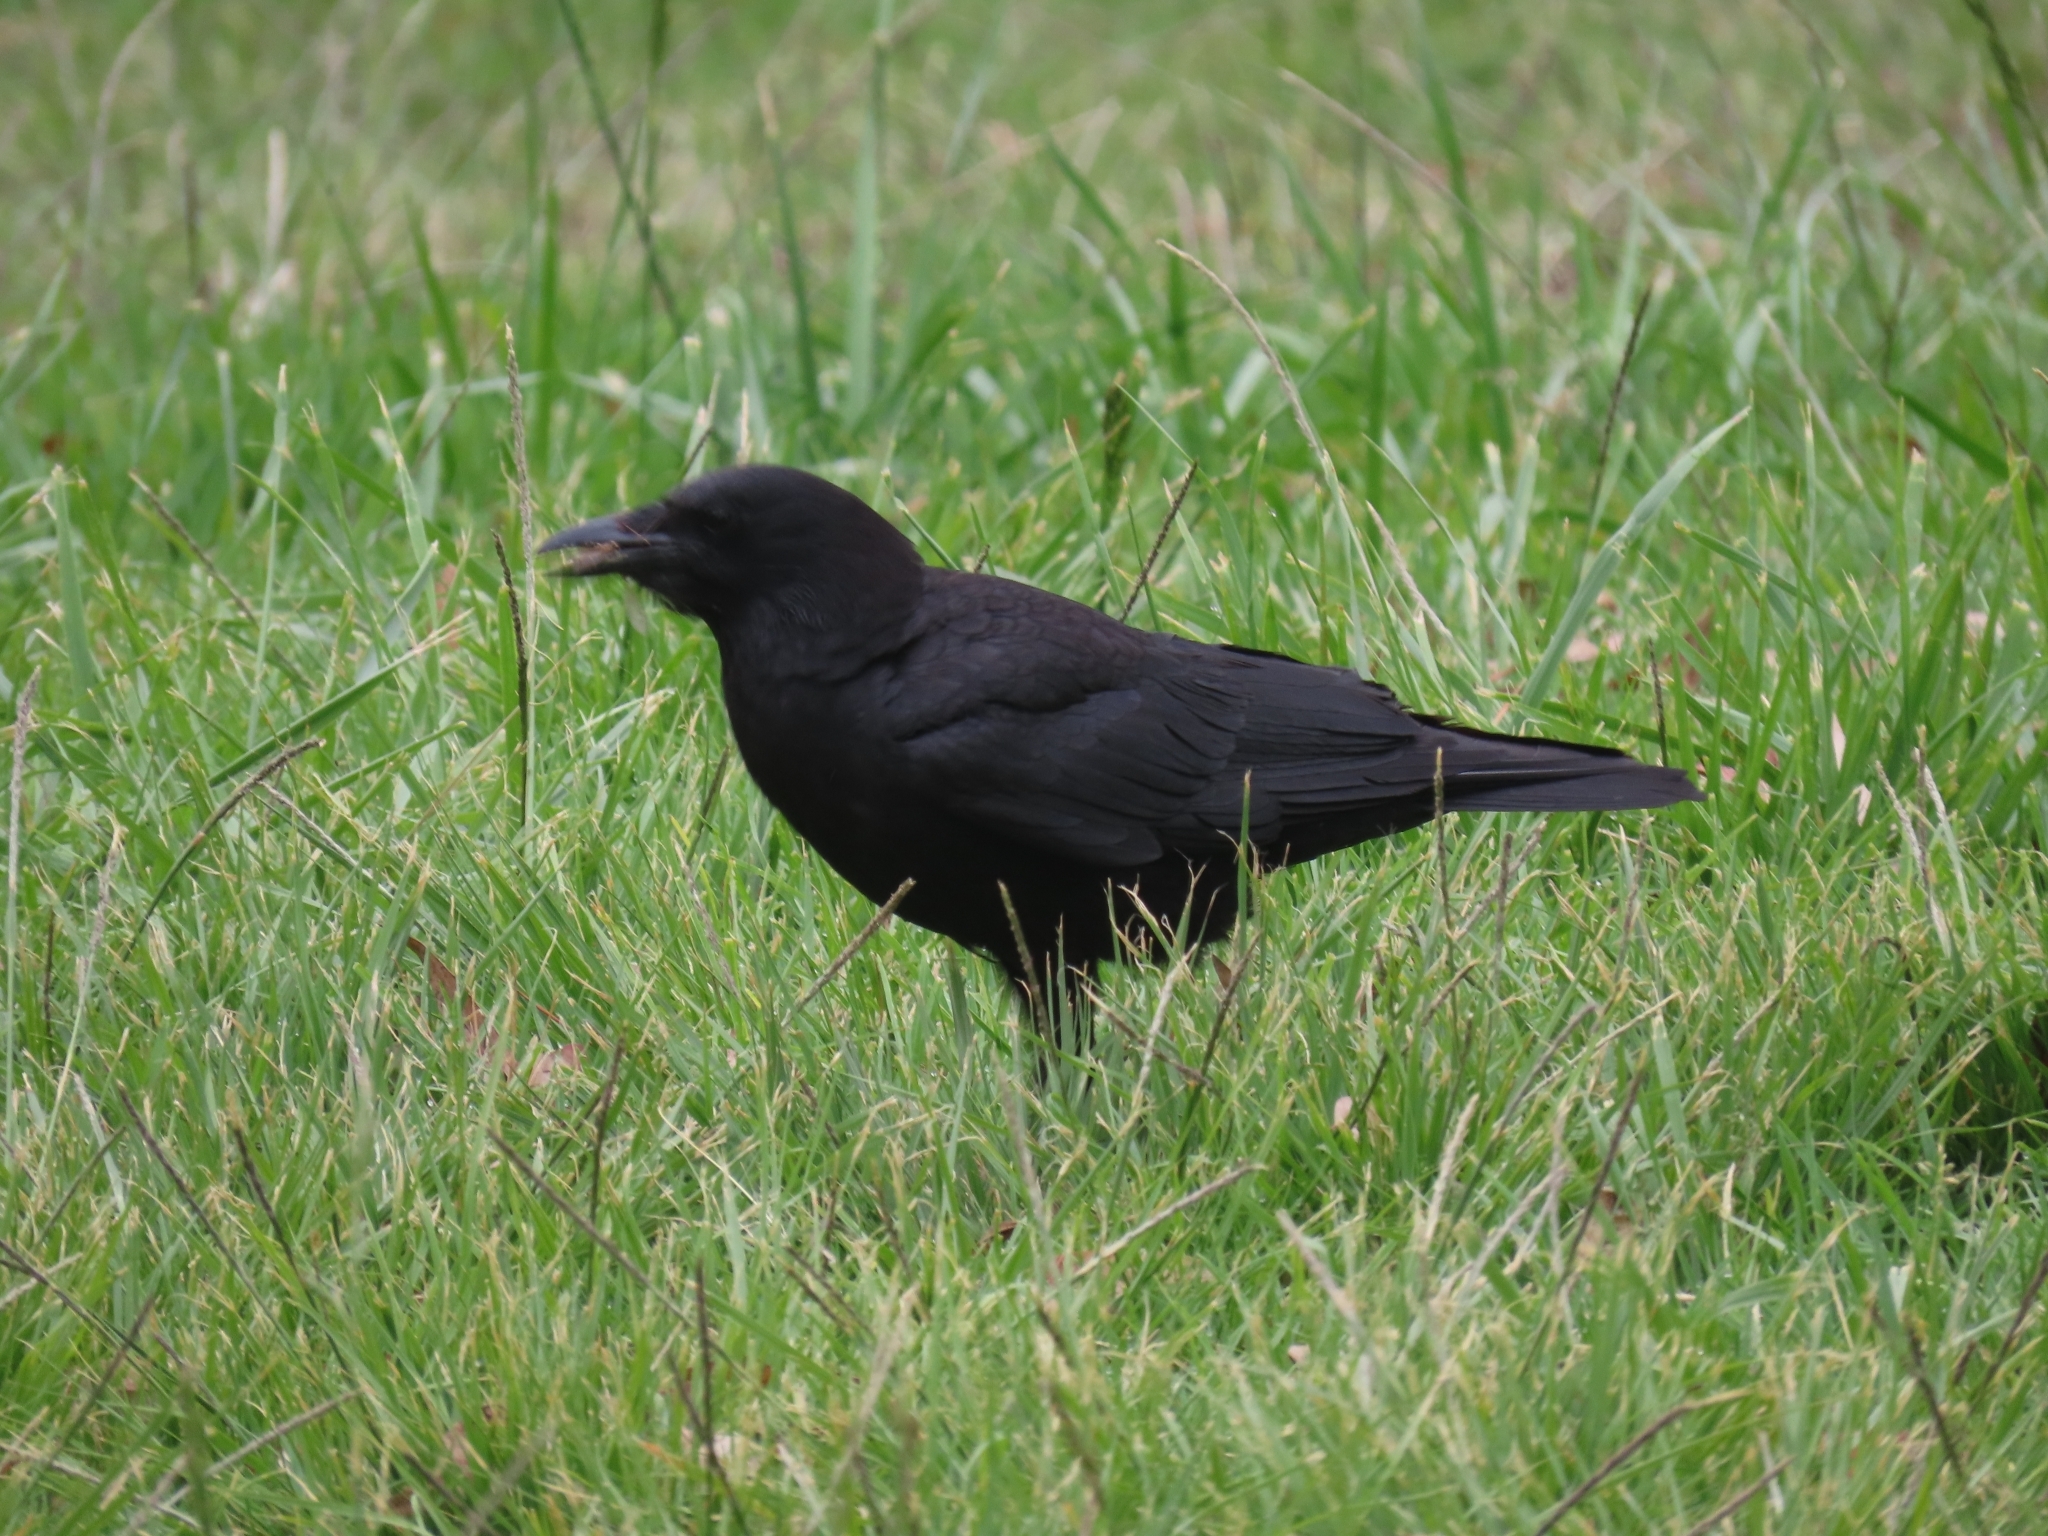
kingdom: Animalia
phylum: Chordata
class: Aves
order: Passeriformes
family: Corvidae
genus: Corvus
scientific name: Corvus brachyrhynchos
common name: American crow
